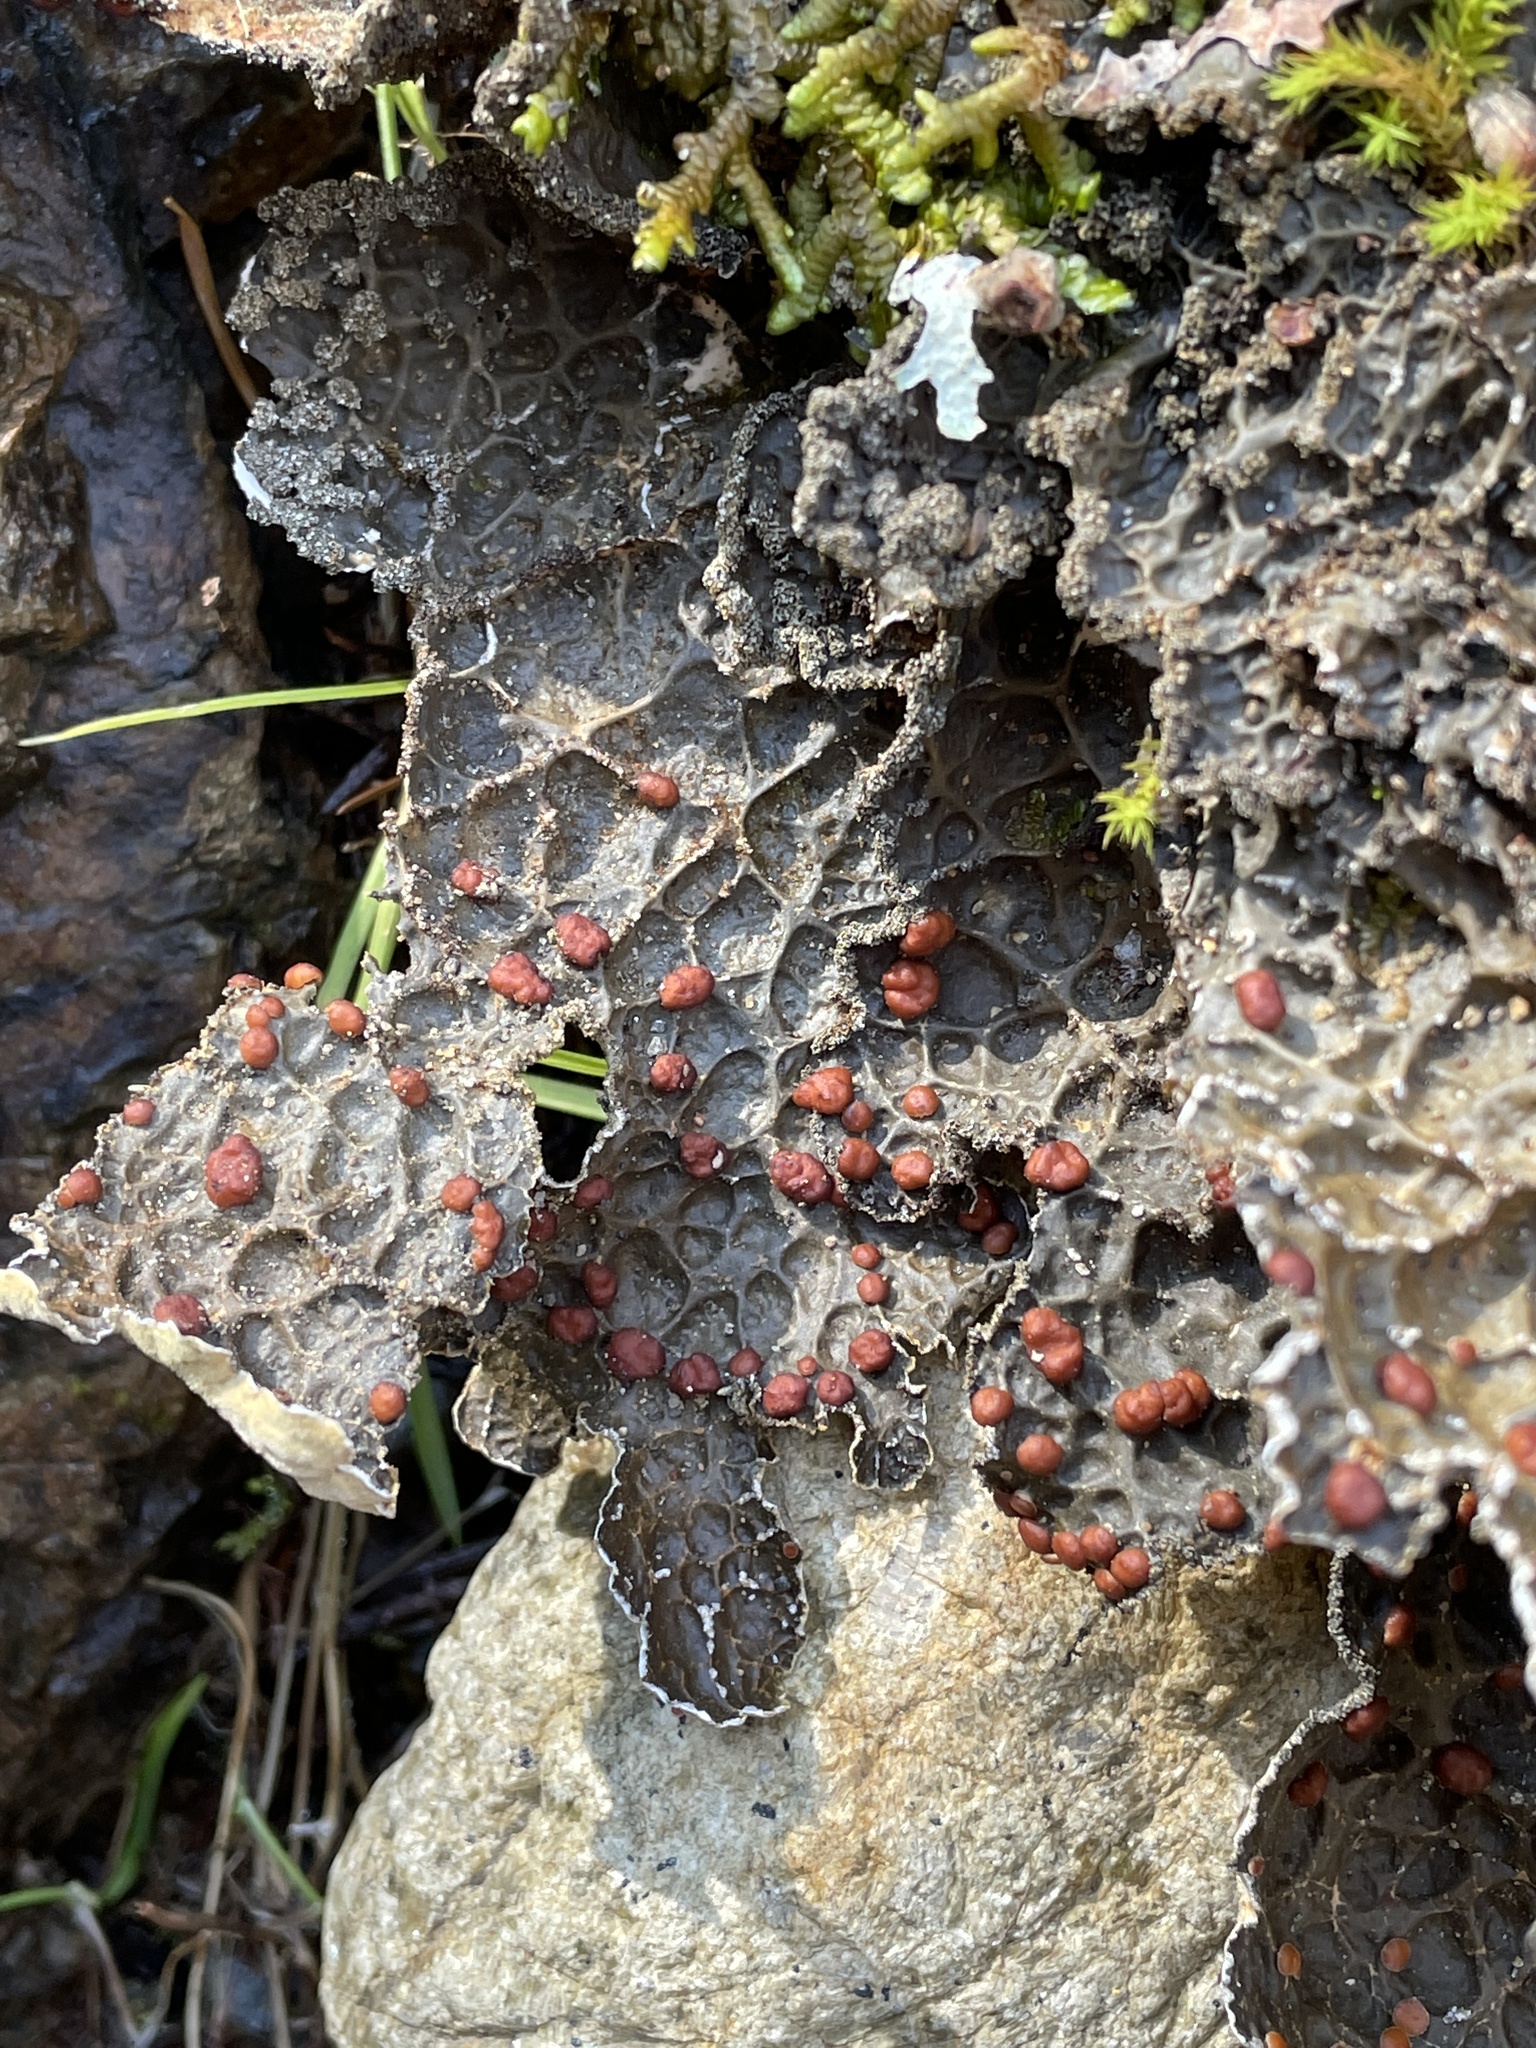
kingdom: Fungi
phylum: Ascomycota
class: Lecanoromycetes
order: Peltigerales
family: Lobariaceae
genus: Lobaria
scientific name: Lobaria anomala
